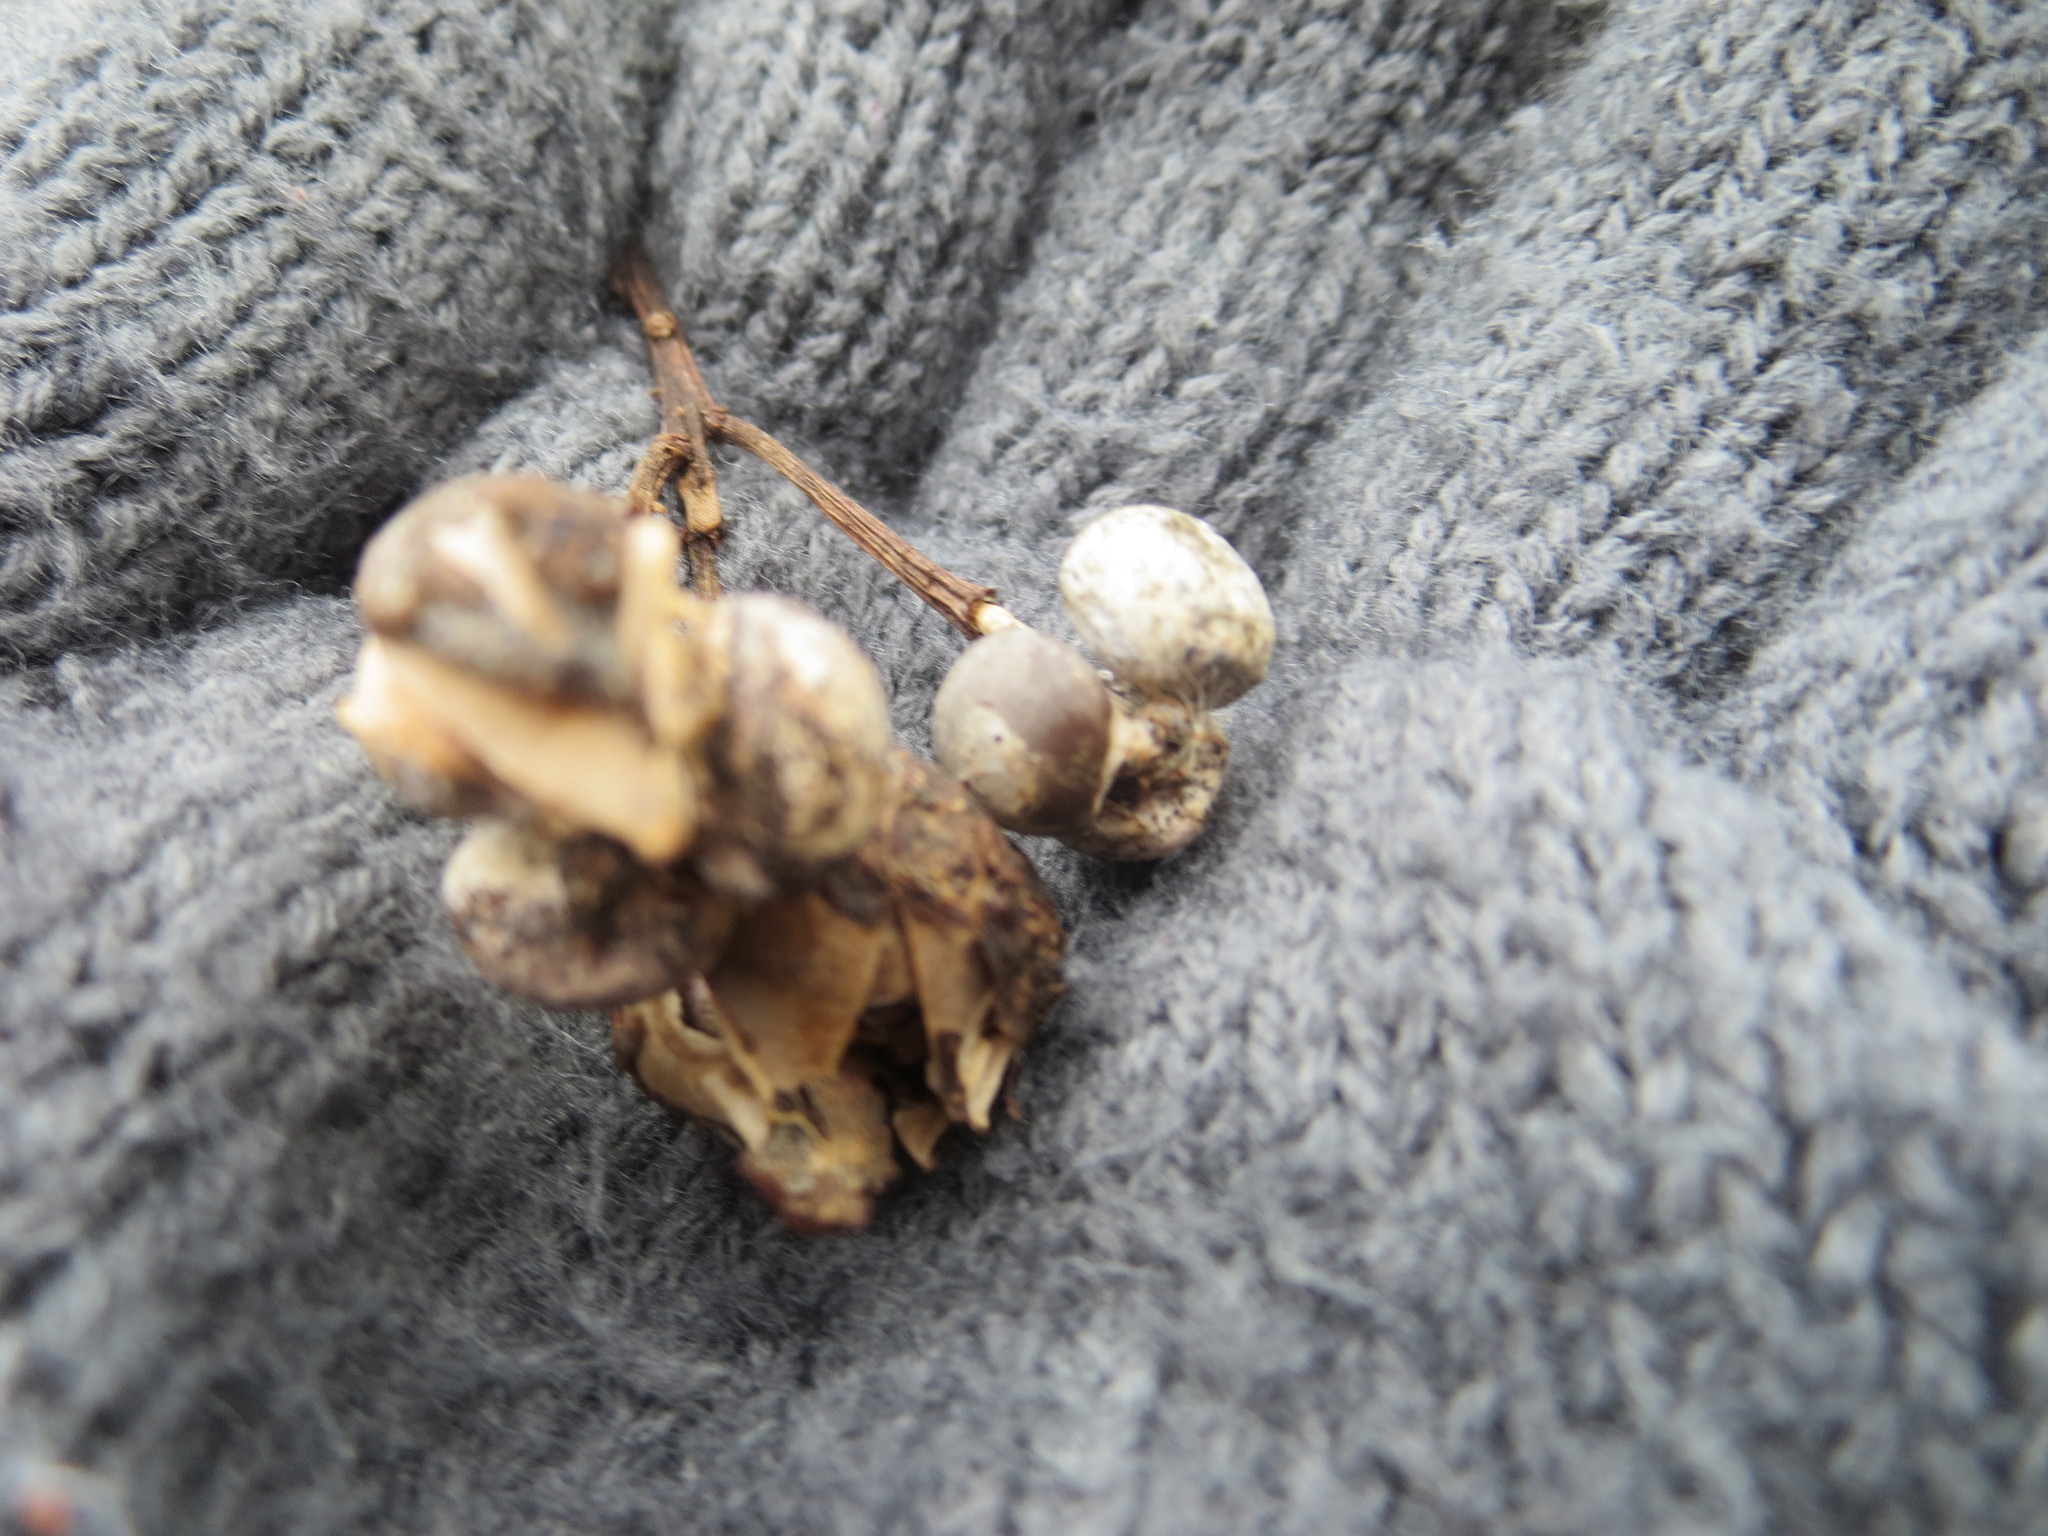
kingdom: Plantae
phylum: Tracheophyta
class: Magnoliopsida
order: Malpighiales
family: Euphorbiaceae
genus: Triadica
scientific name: Triadica sebifera
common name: Chinese tallow
